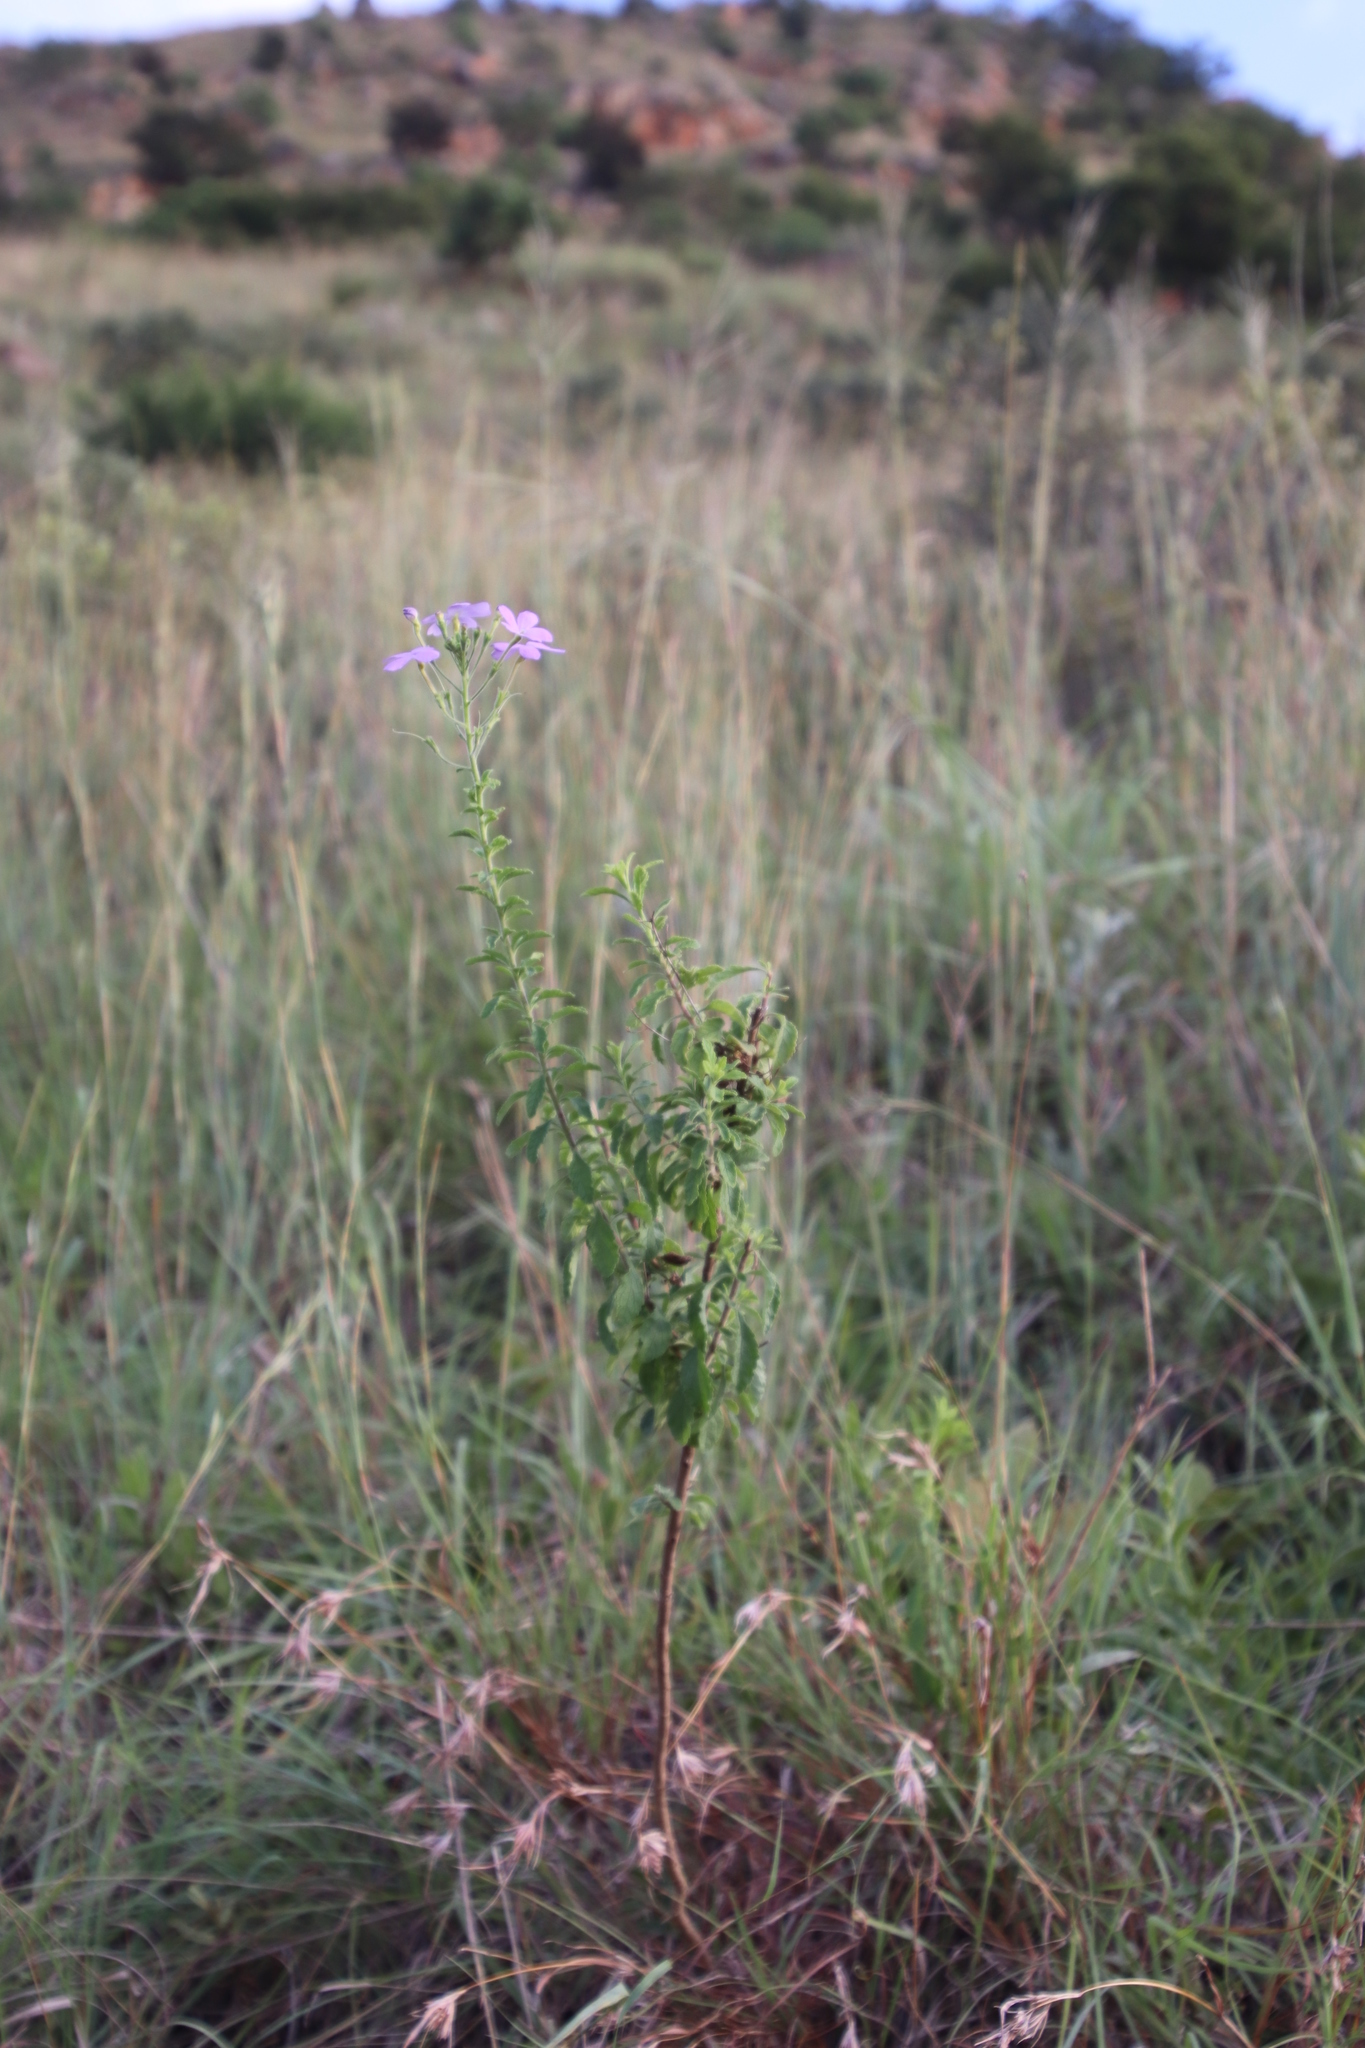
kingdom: Plantae
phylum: Tracheophyta
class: Magnoliopsida
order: Lamiales
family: Scrophulariaceae
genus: Jamesbrittenia
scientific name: Jamesbrittenia grandiflora
